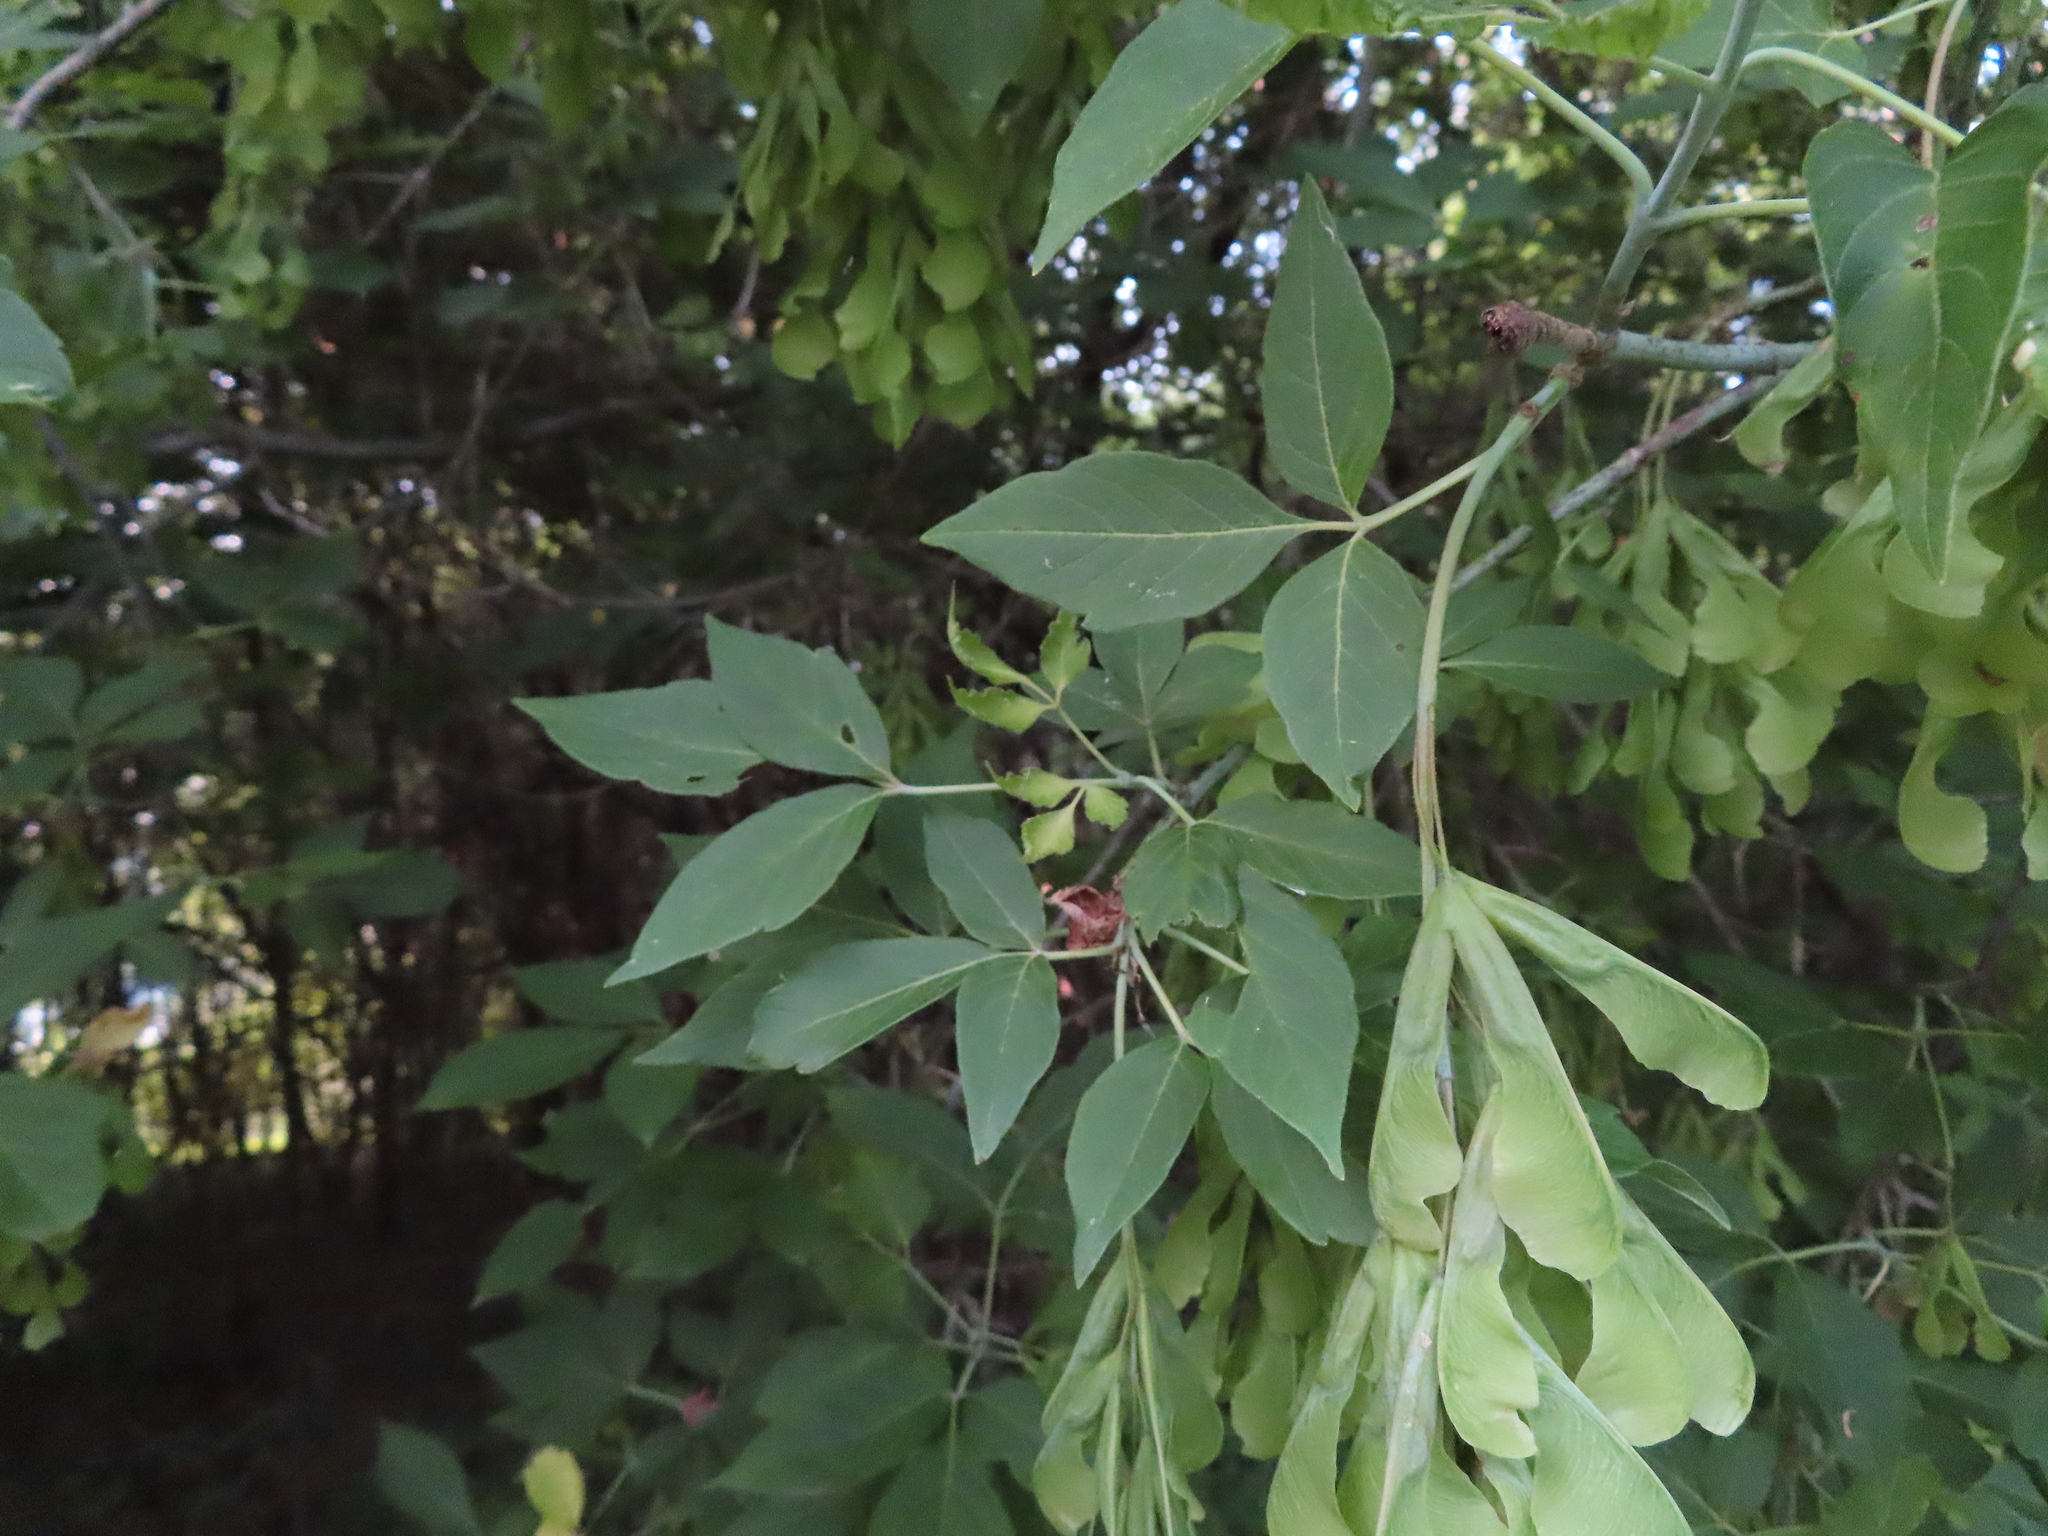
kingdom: Plantae
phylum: Tracheophyta
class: Magnoliopsida
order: Sapindales
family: Sapindaceae
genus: Acer
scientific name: Acer negundo
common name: Ashleaf maple
